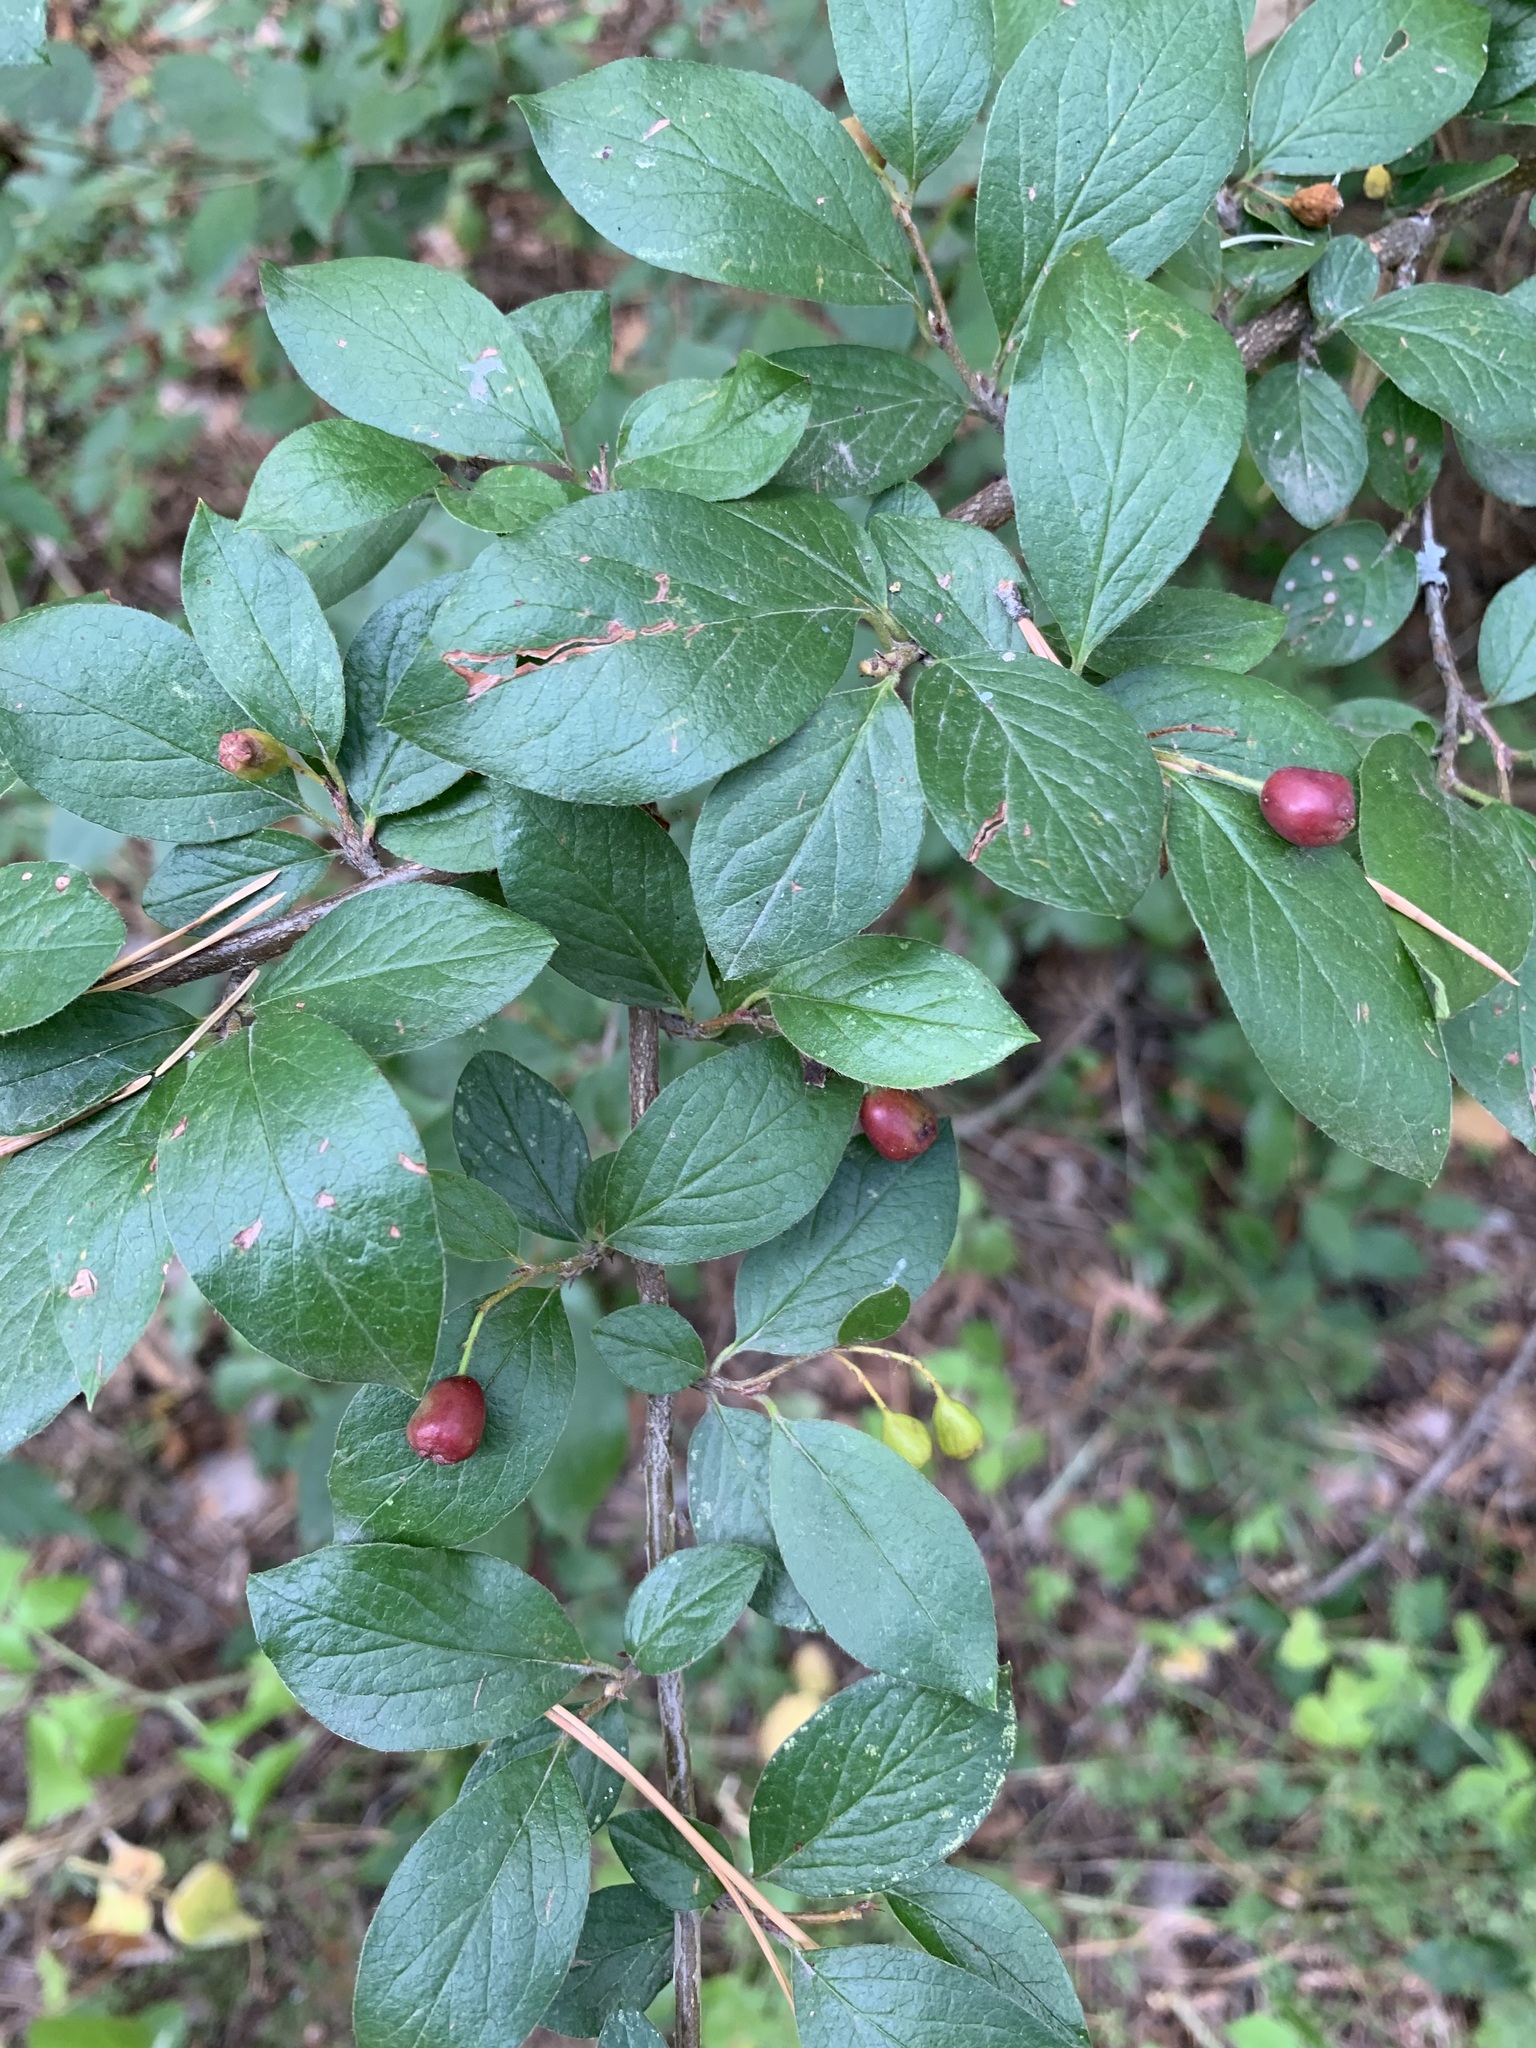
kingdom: Plantae
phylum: Tracheophyta
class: Magnoliopsida
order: Rosales
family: Rosaceae
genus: Cotoneaster
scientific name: Cotoneaster acutifolius
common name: Peking cotoneaster
